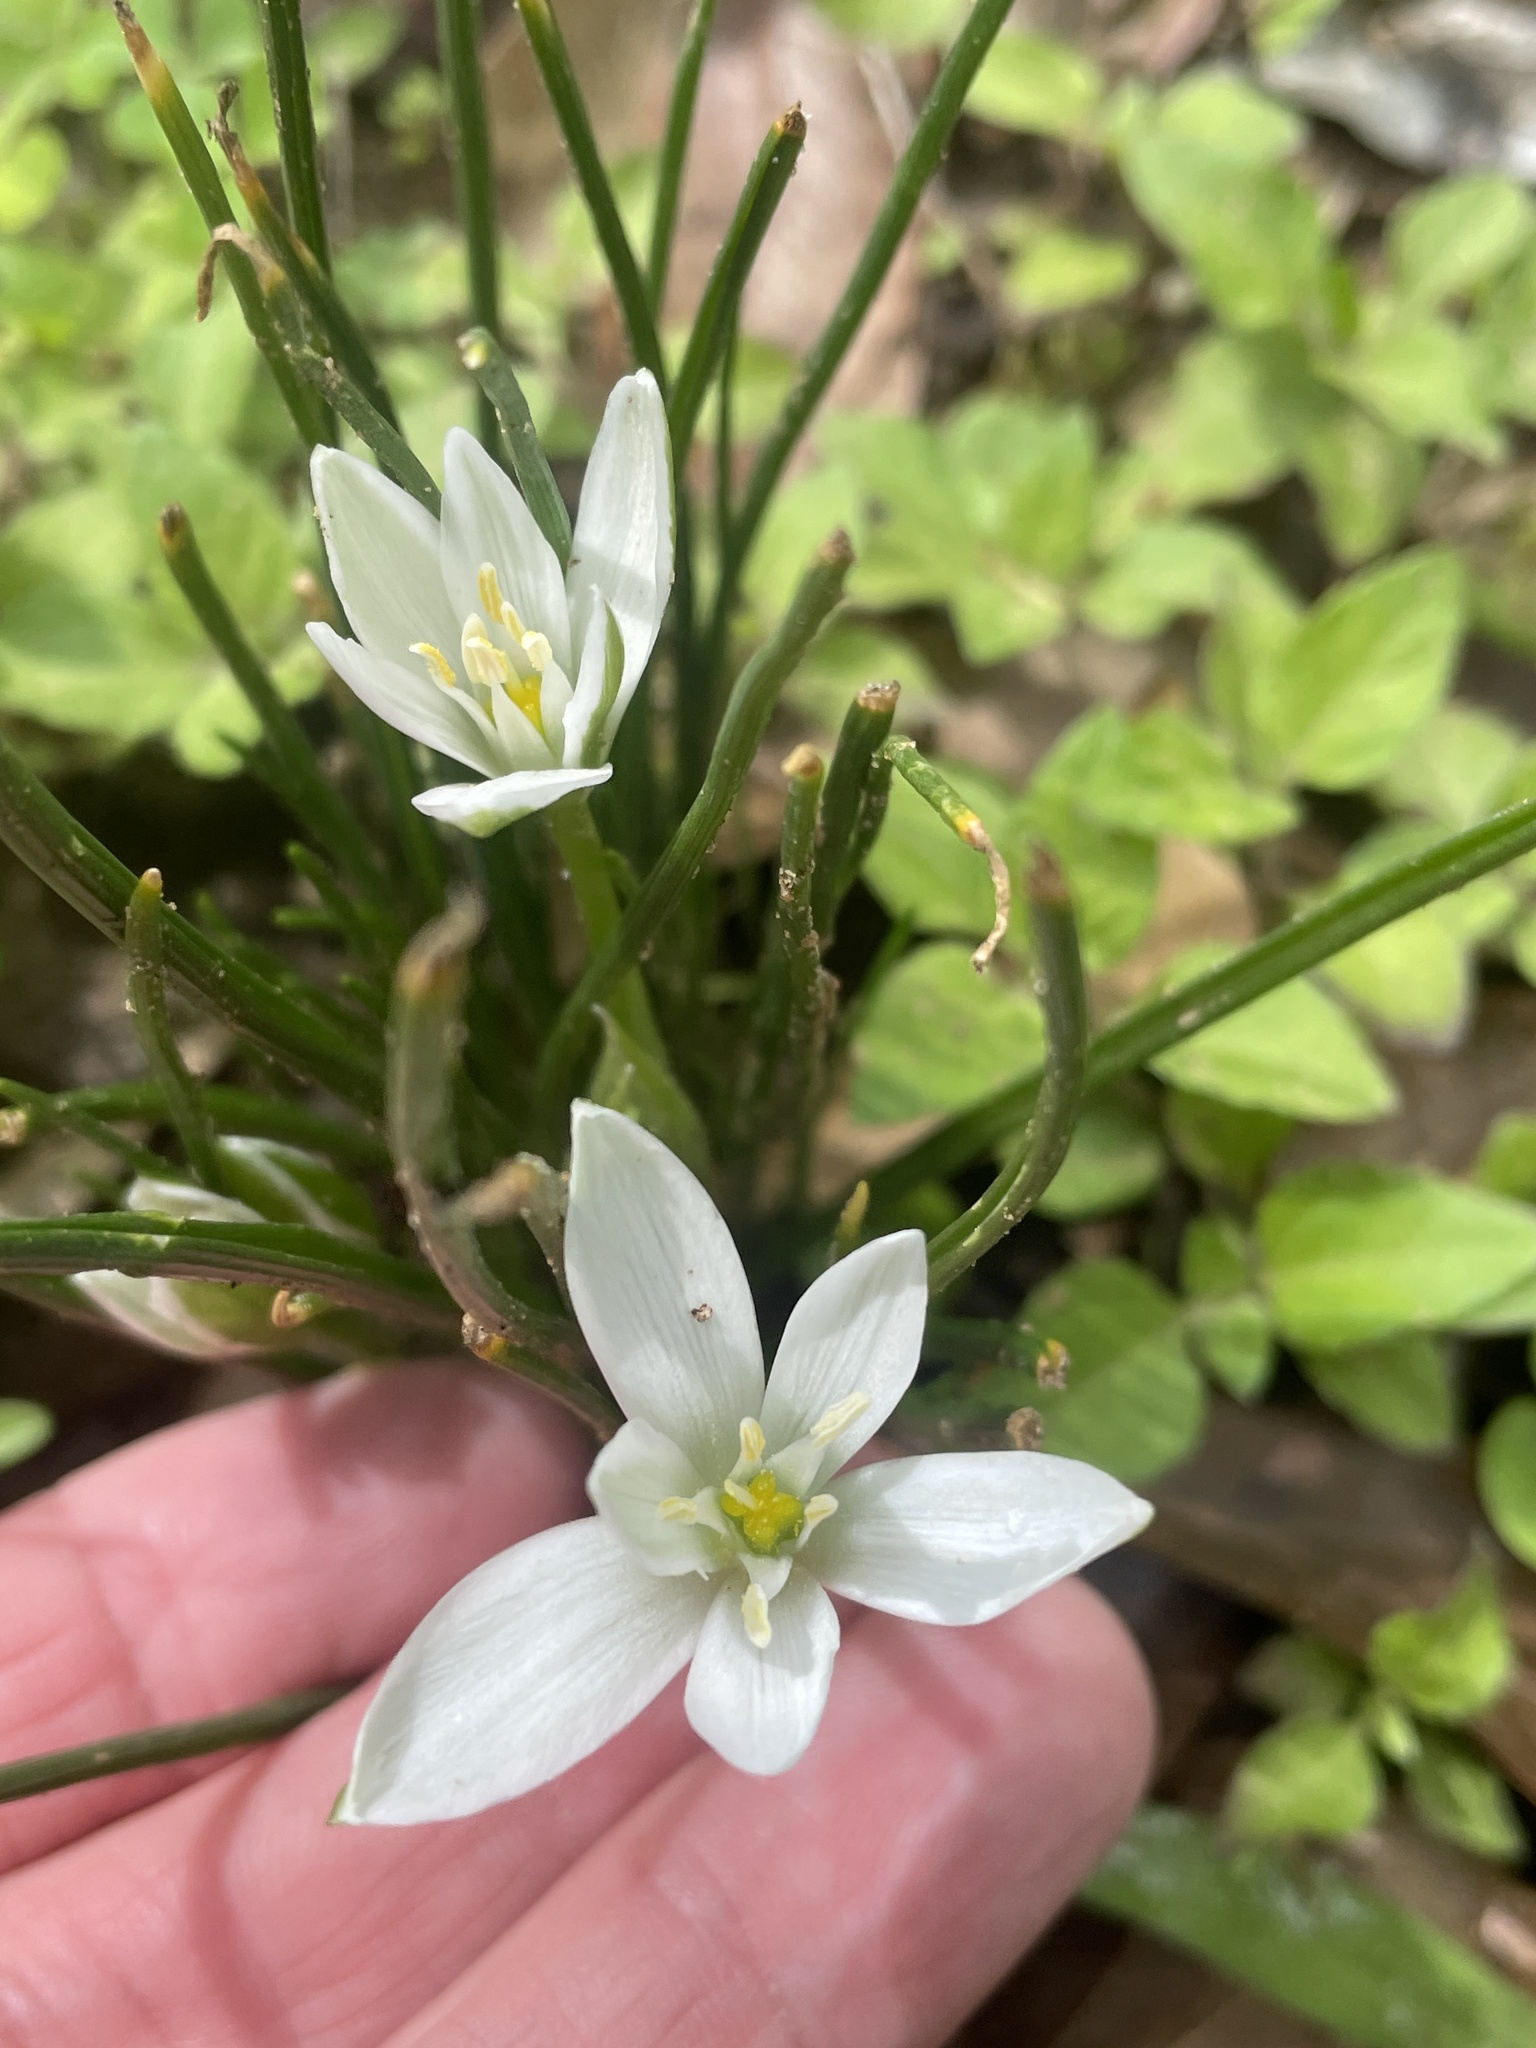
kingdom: Plantae
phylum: Tracheophyta
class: Liliopsida
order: Asparagales
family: Asparagaceae
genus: Ornithogalum
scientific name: Ornithogalum umbellatum
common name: Garden star-of-bethlehem
